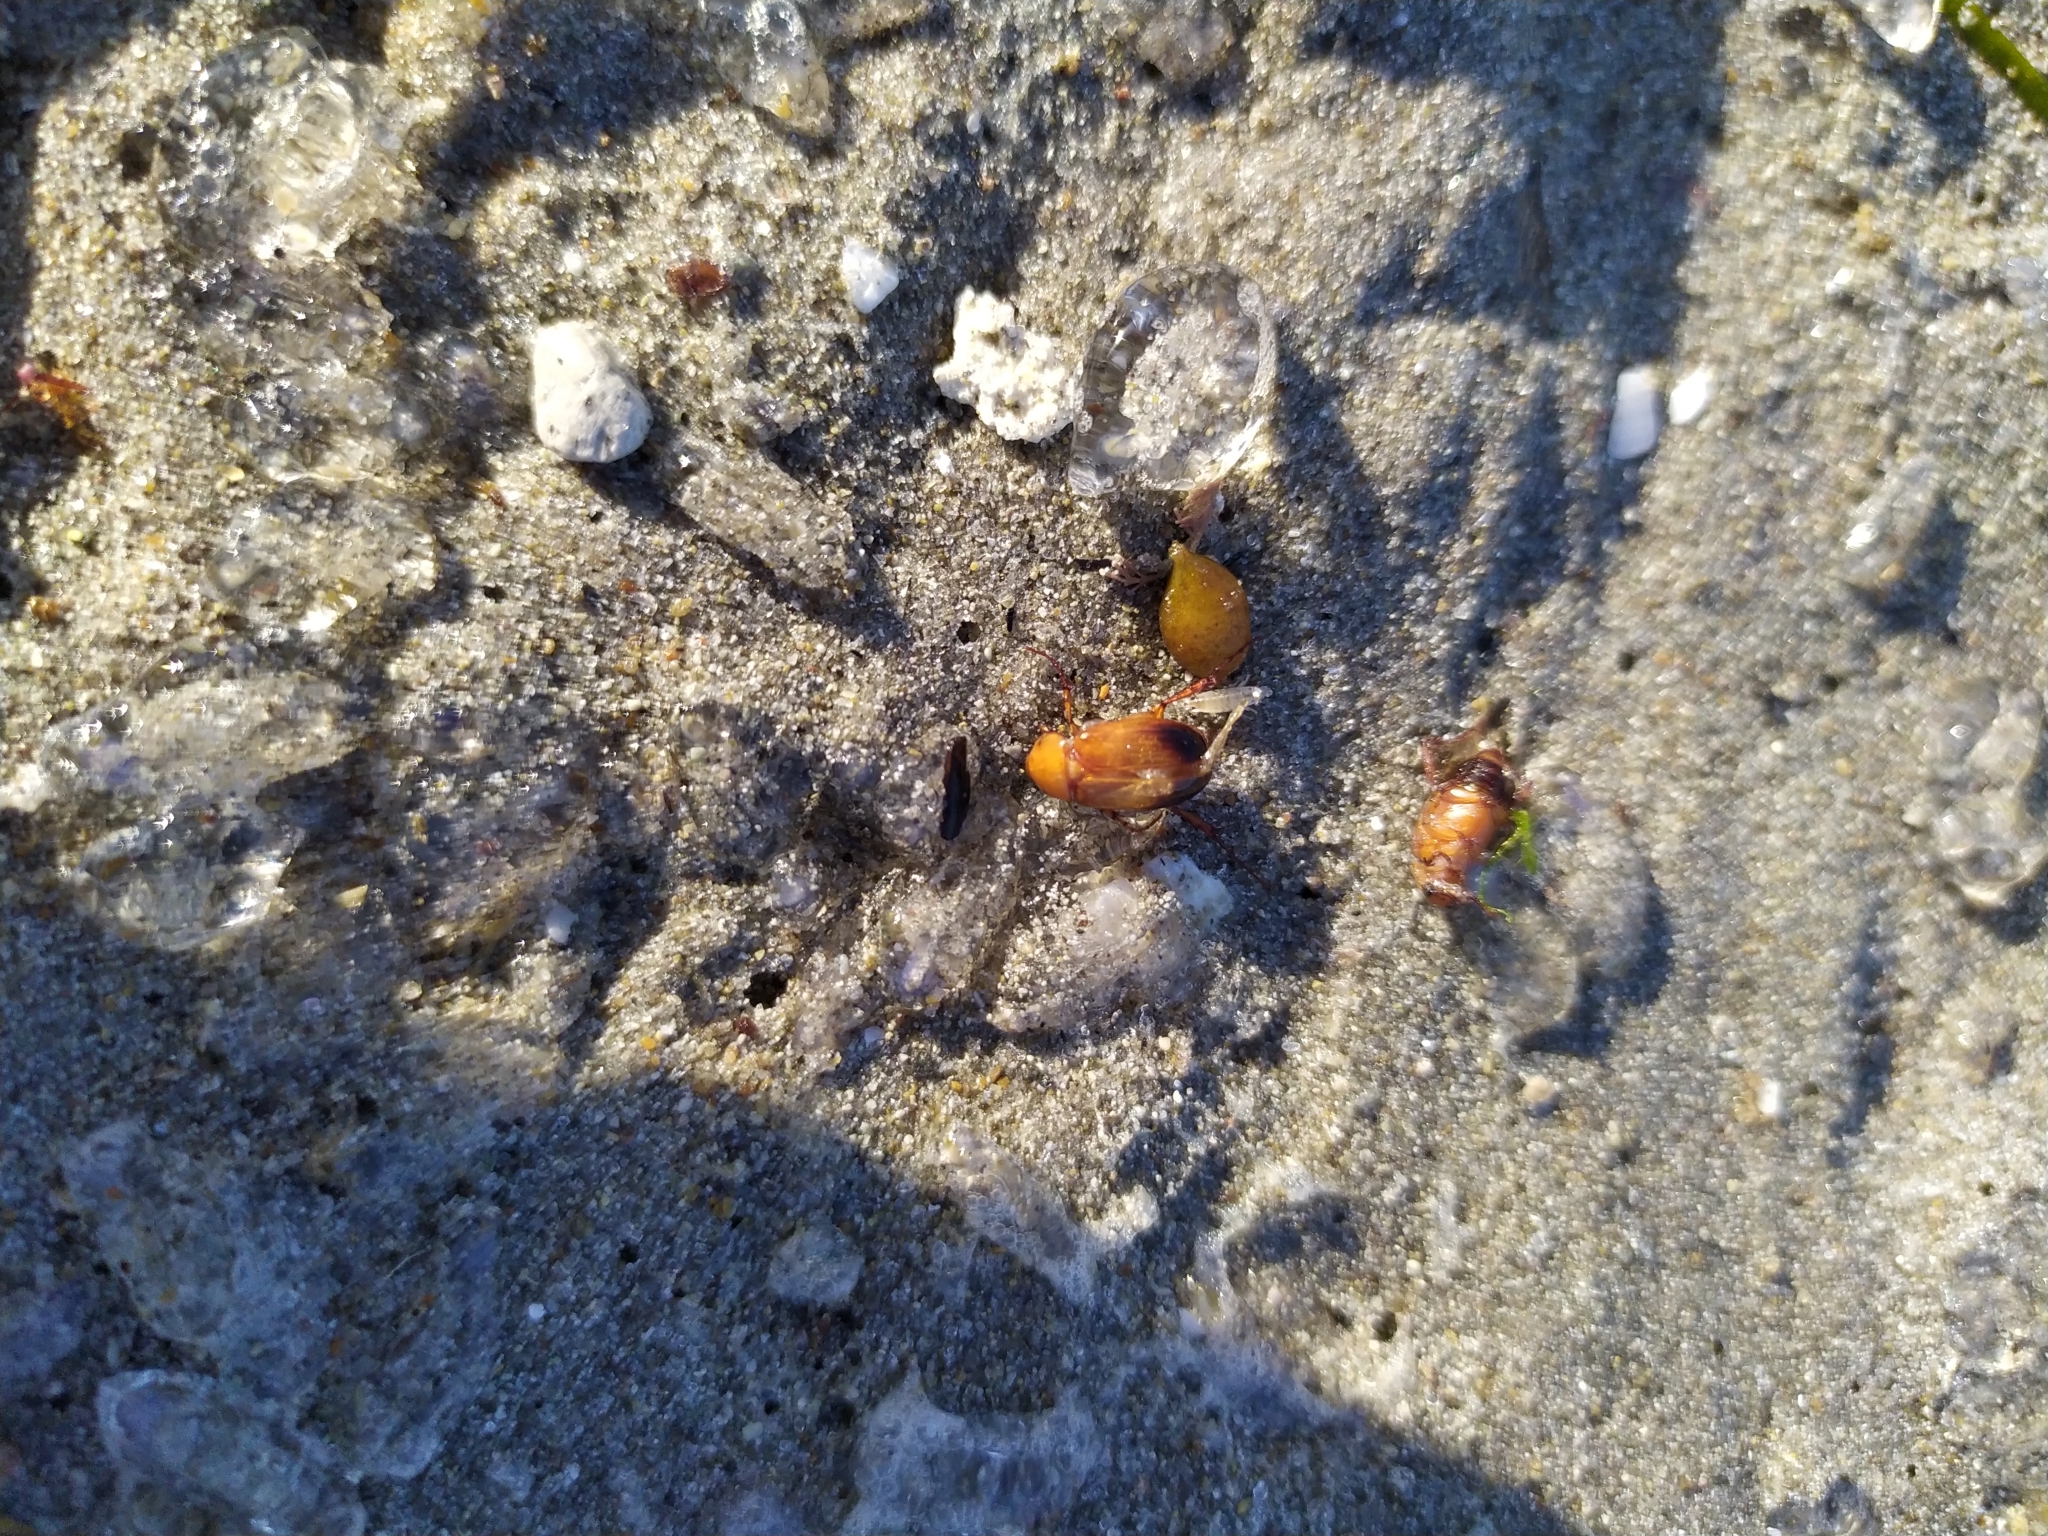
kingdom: Animalia
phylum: Arthropoda
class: Insecta
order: Coleoptera
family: Scarabaeidae
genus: Phyllotocus
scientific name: Phyllotocus macleayi
